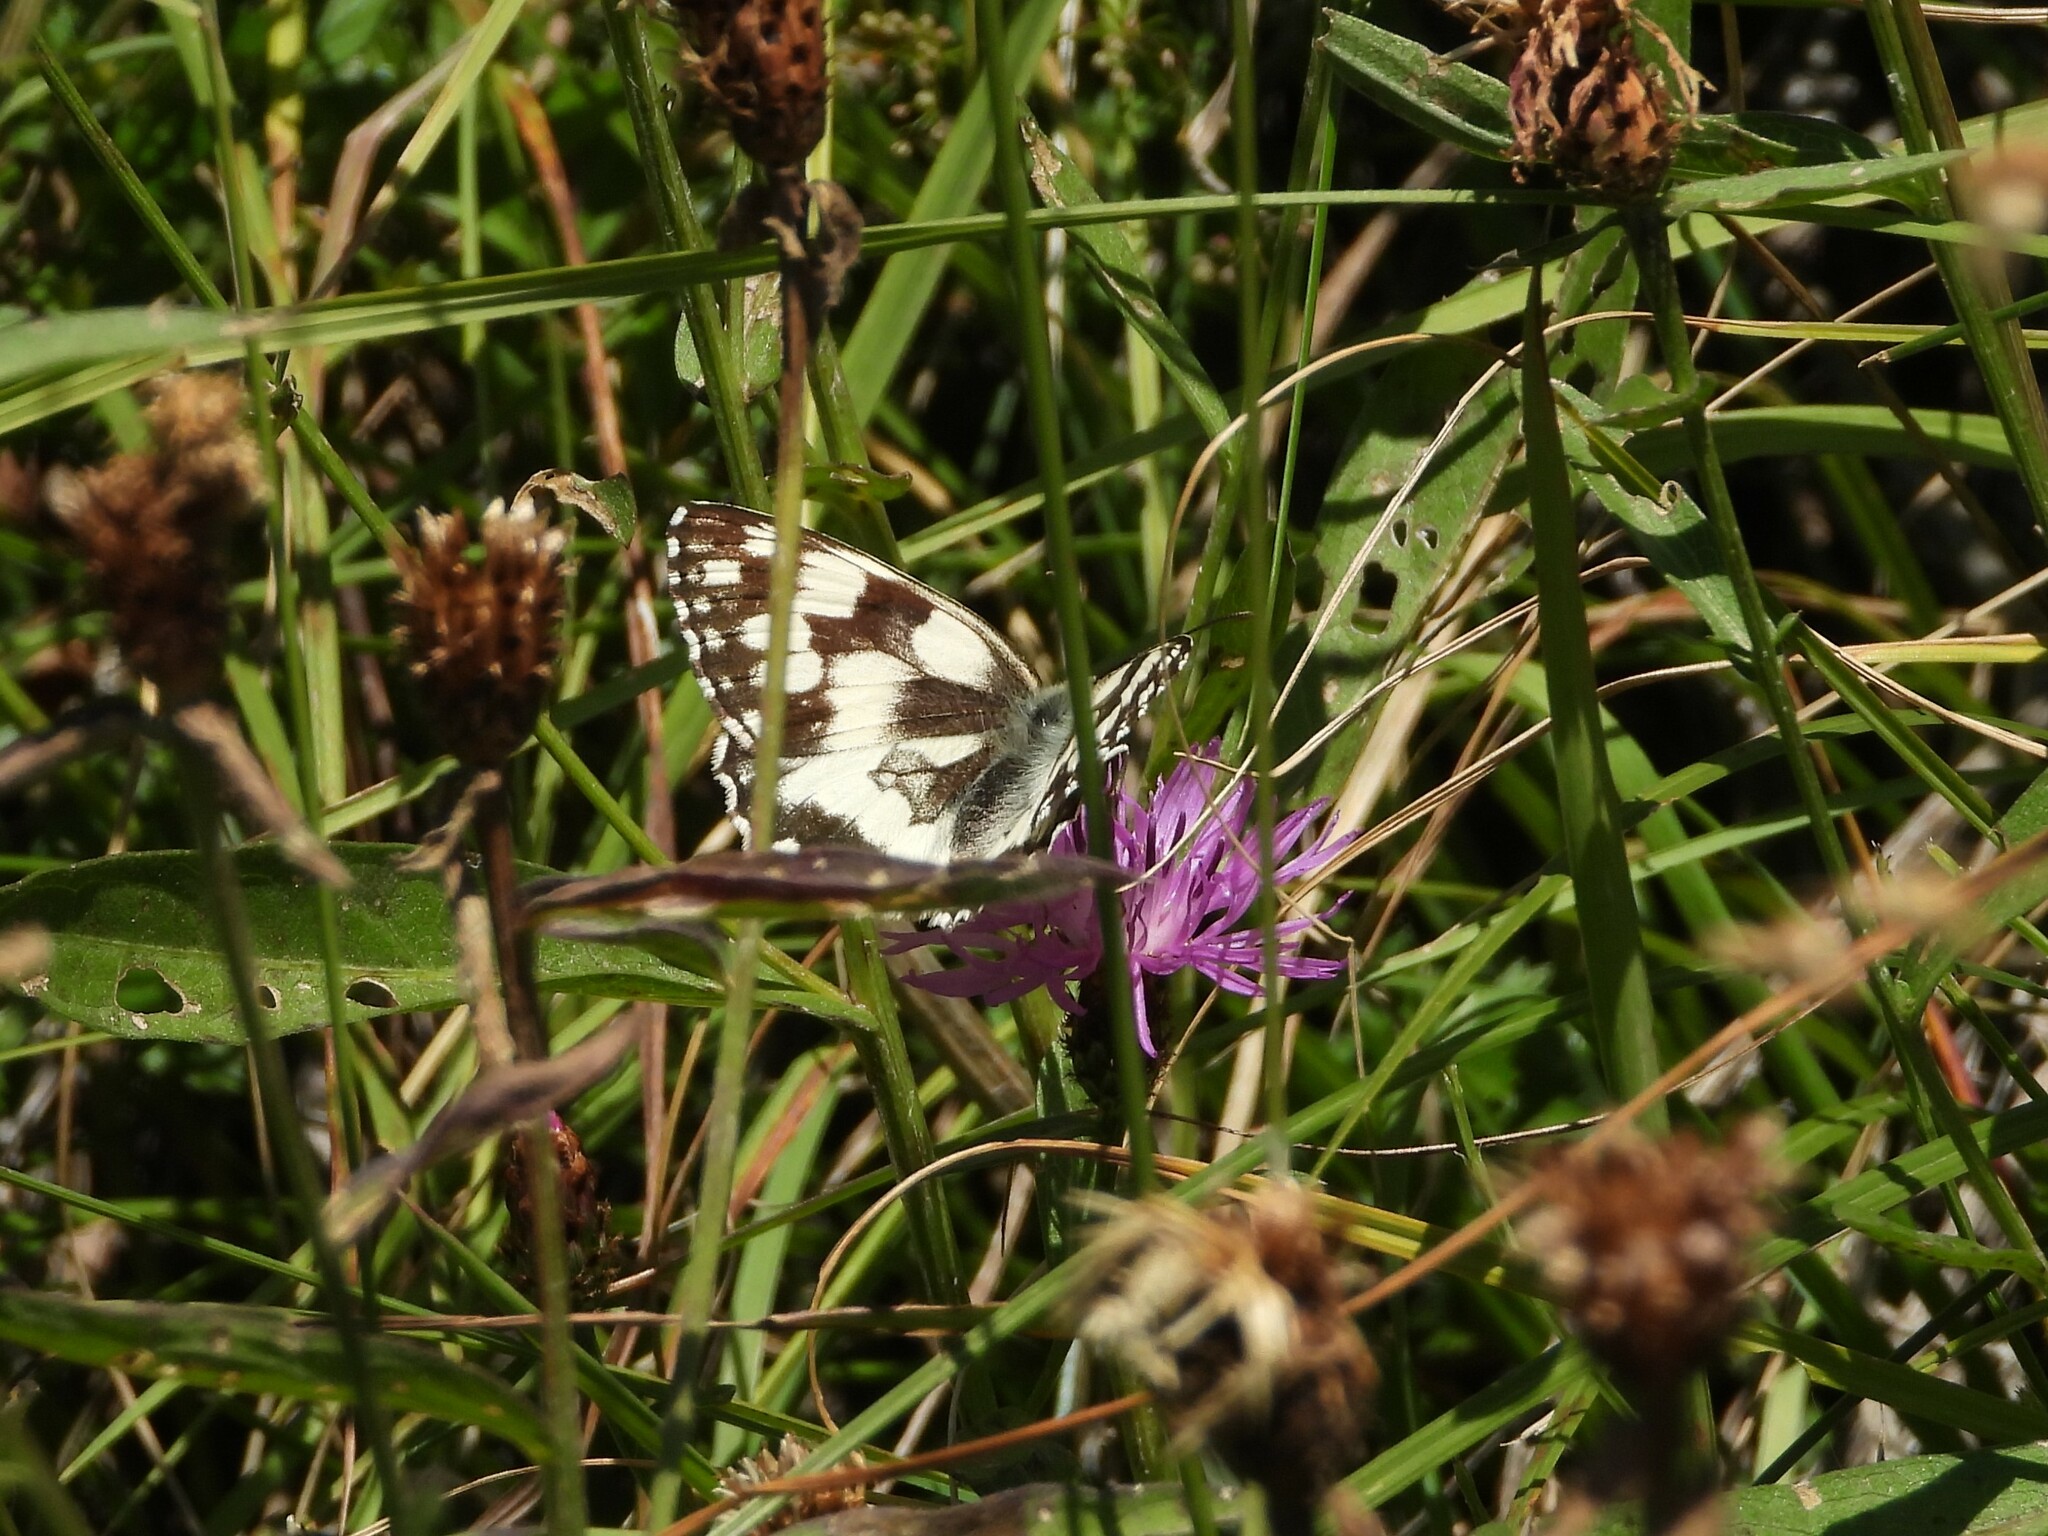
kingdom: Animalia
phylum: Arthropoda
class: Insecta
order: Lepidoptera
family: Nymphalidae
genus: Melanargia
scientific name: Melanargia galathea
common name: Marbled white
